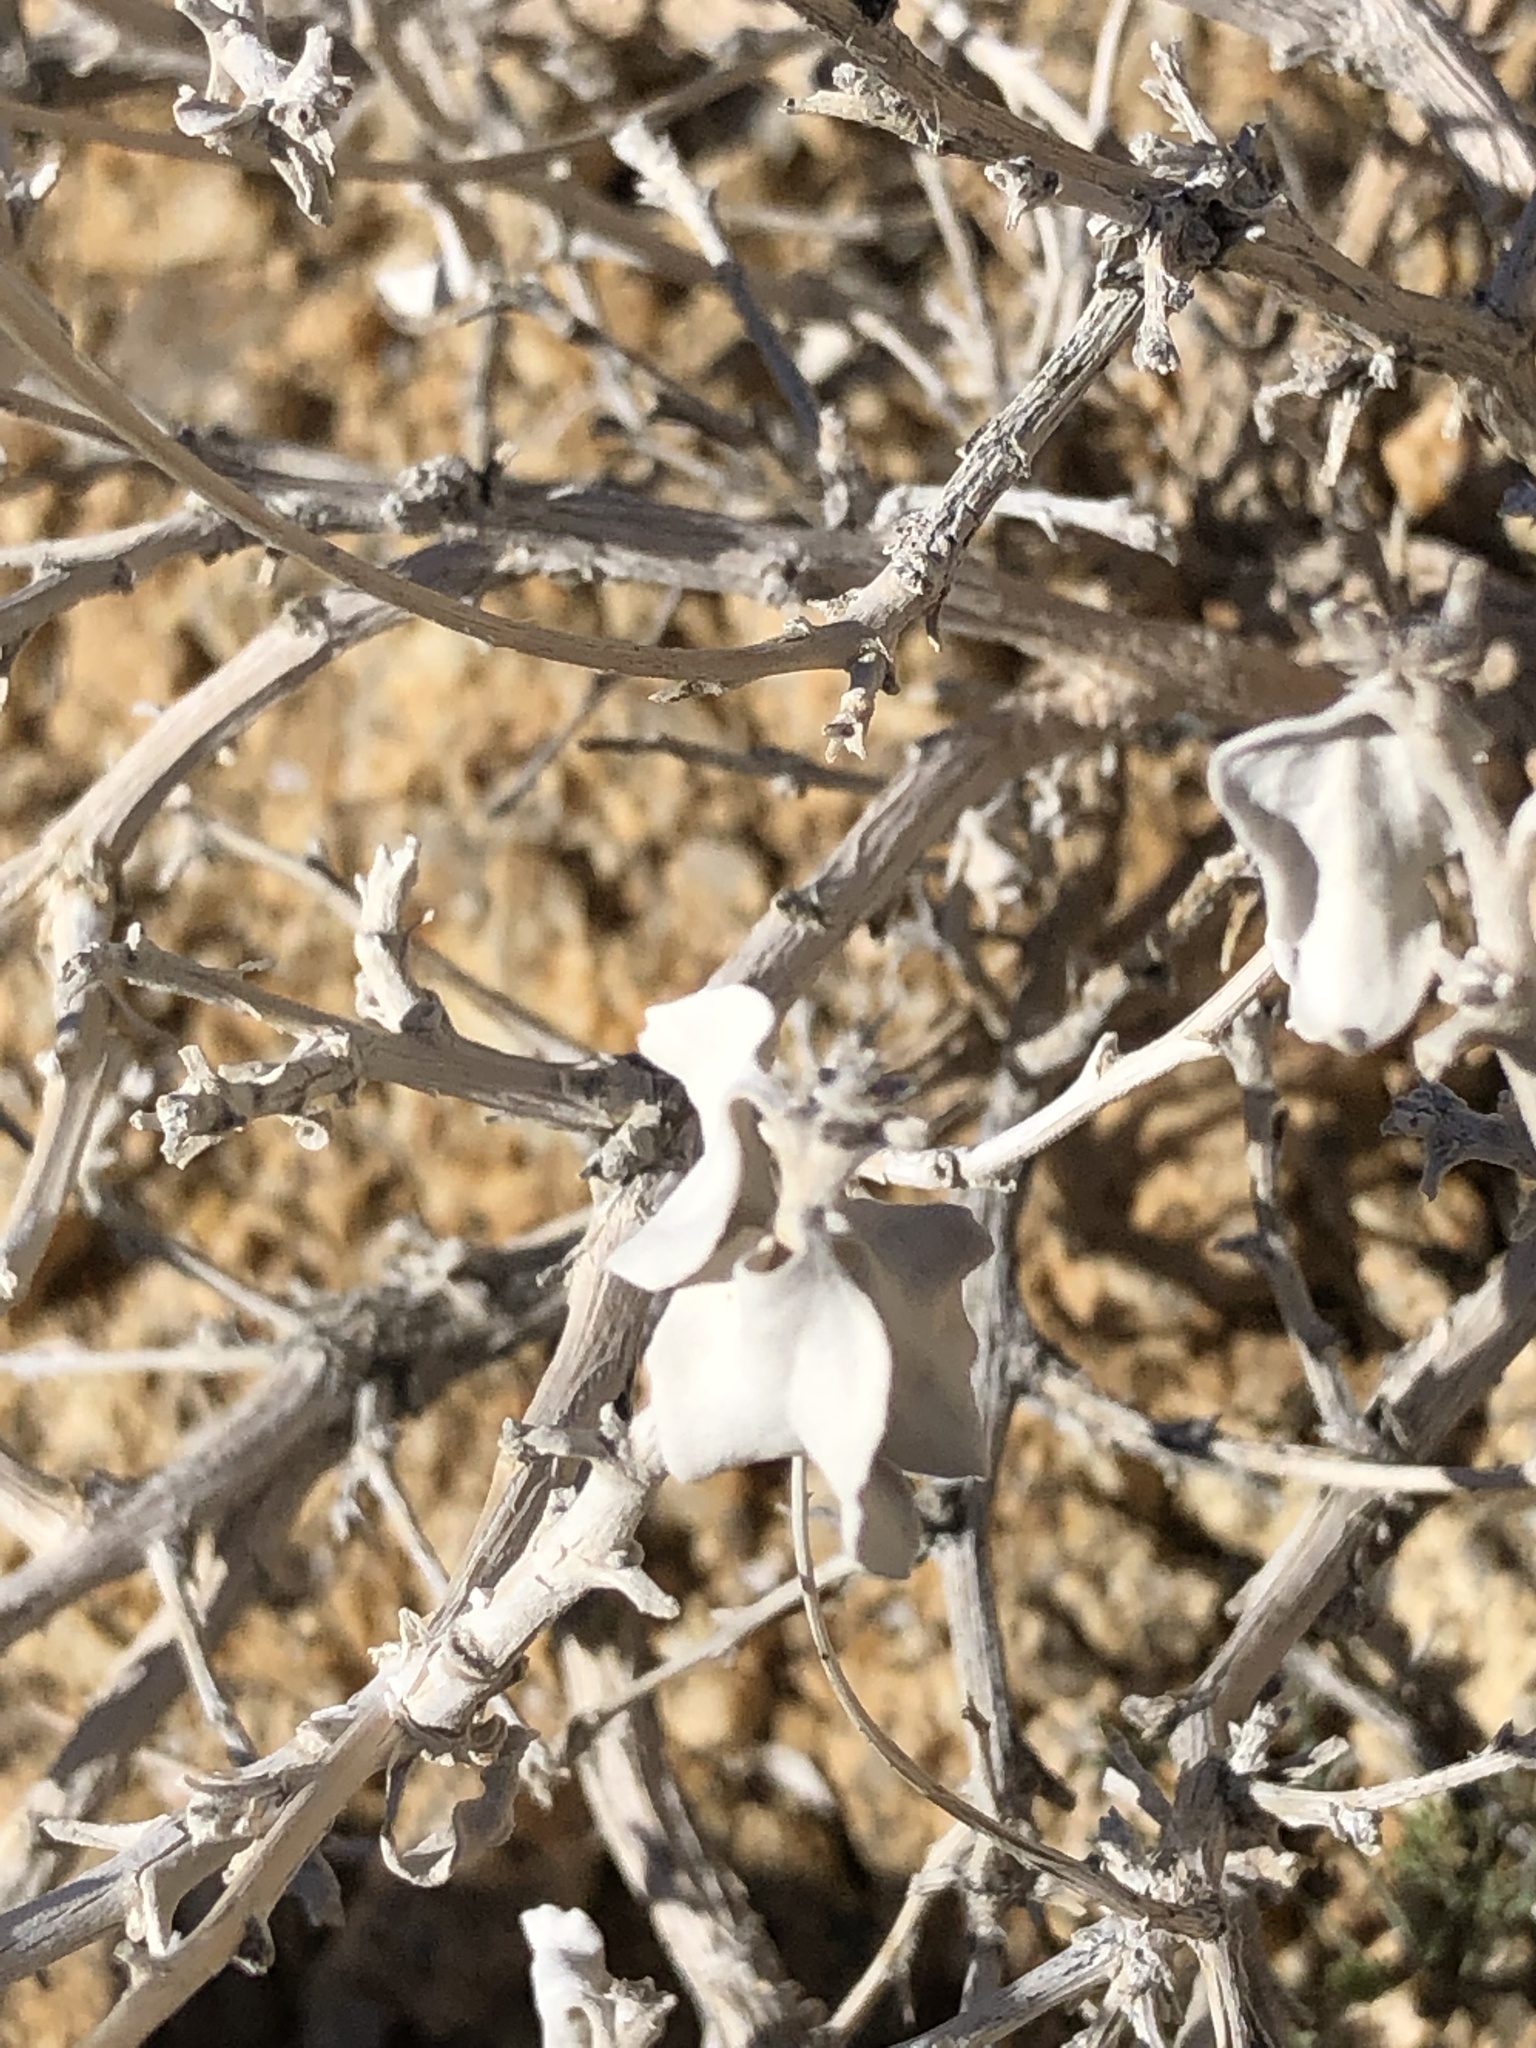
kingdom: Plantae
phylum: Tracheophyta
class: Magnoliopsida
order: Asterales
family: Asteraceae
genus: Encelia
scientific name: Encelia farinosa
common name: Brittlebush
